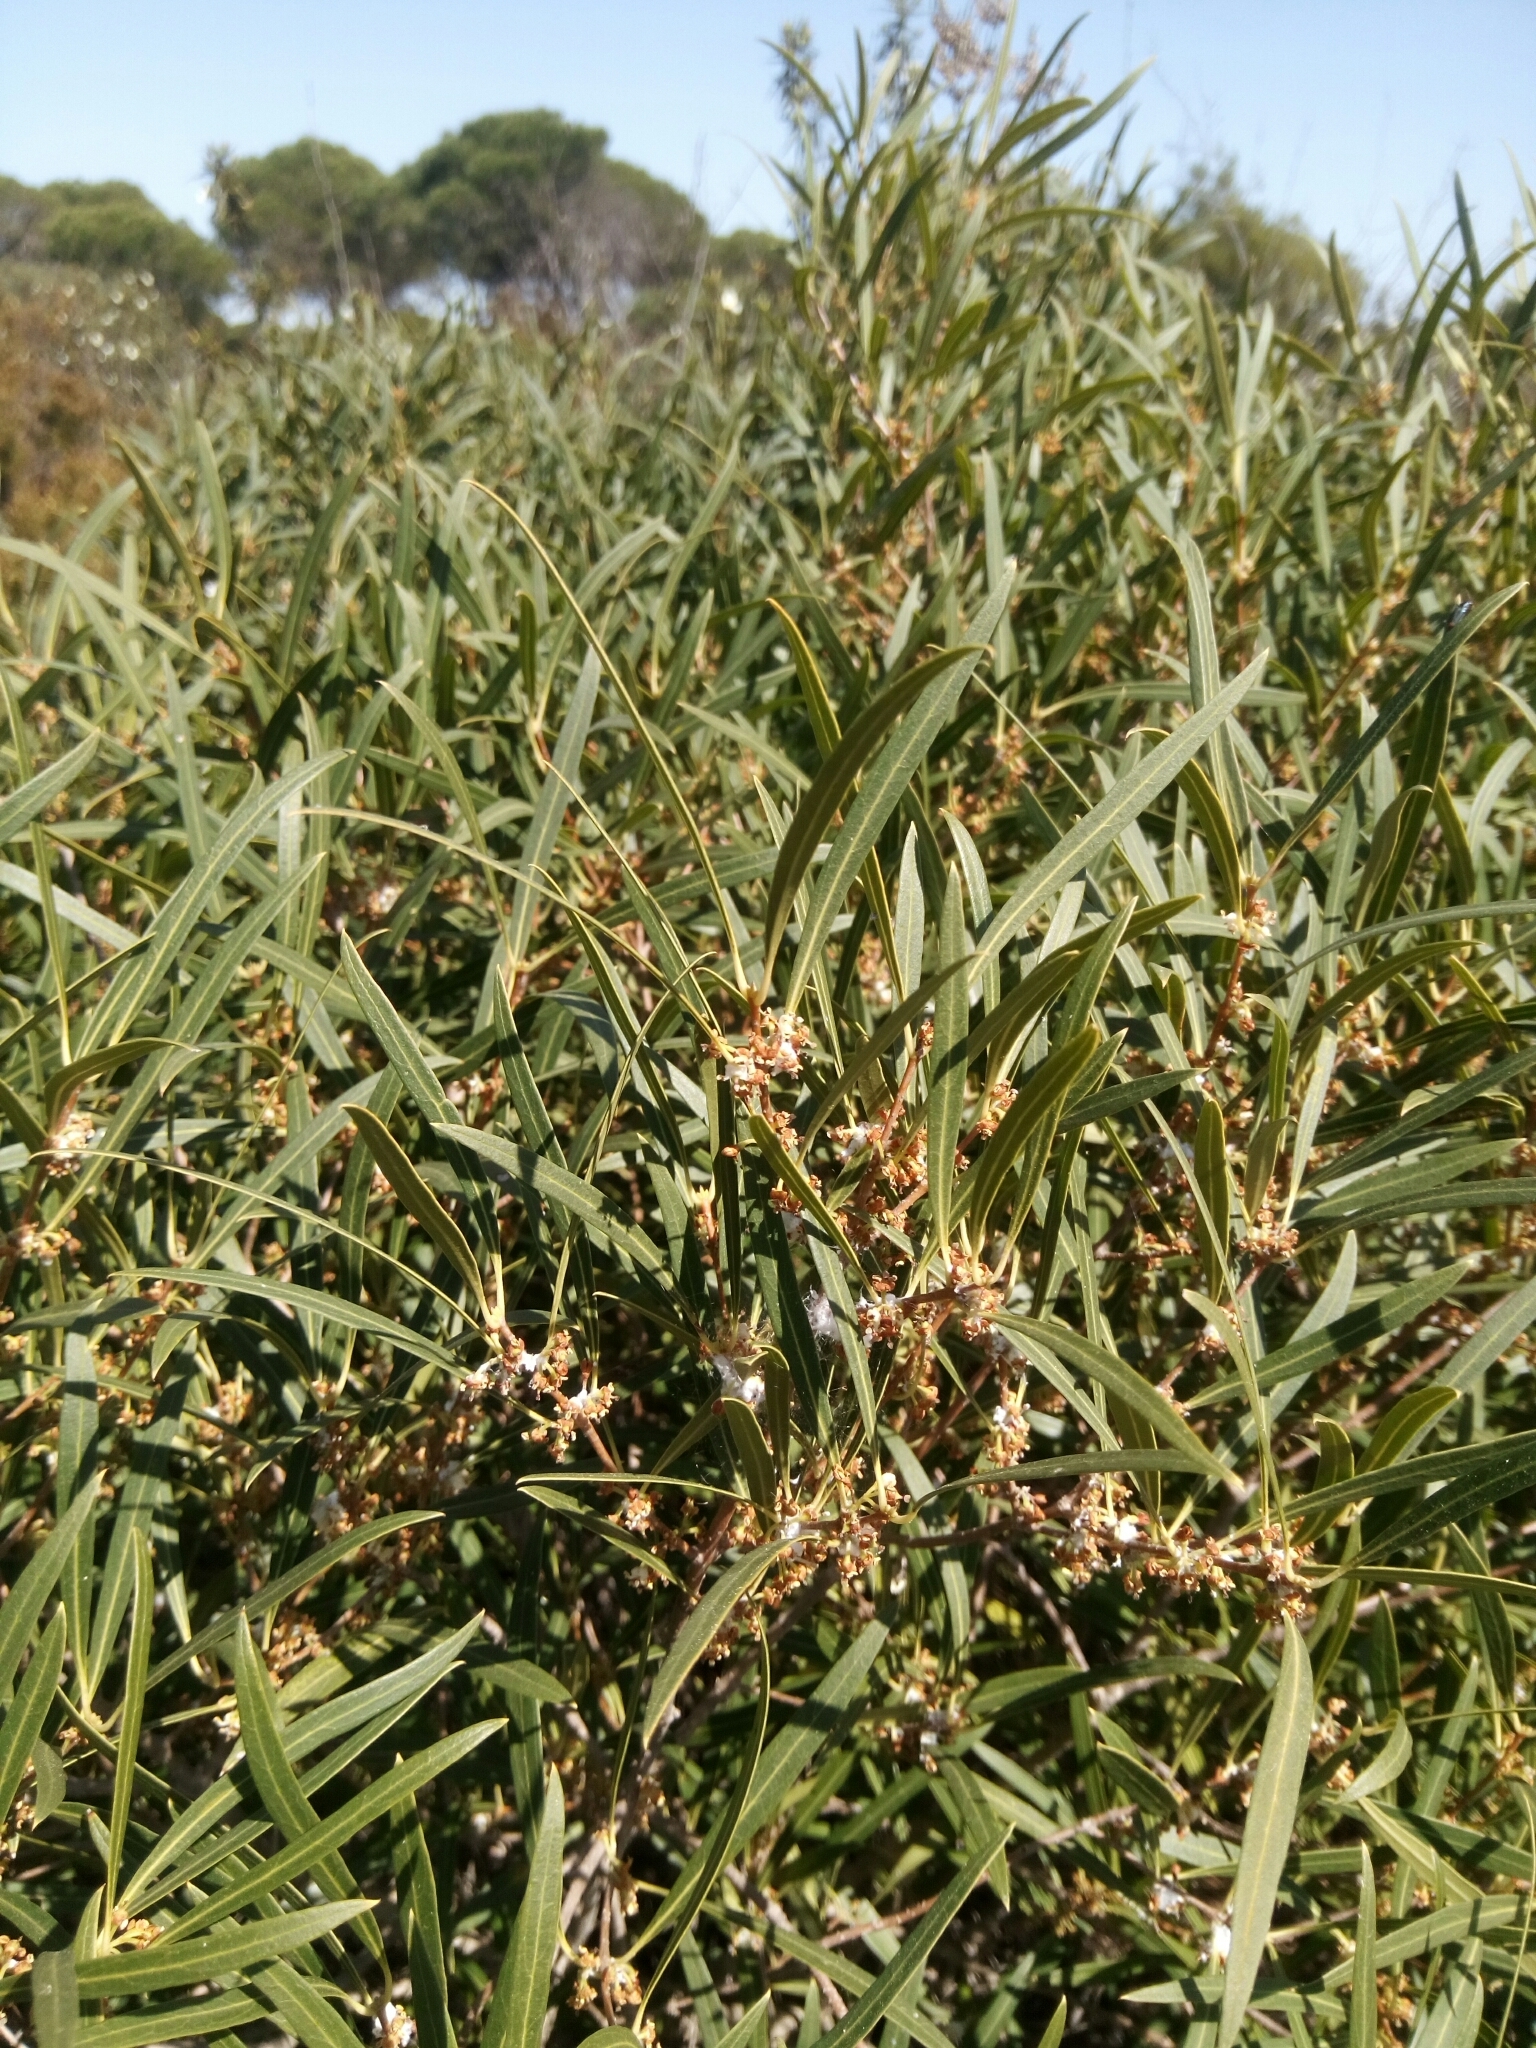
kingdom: Plantae
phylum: Tracheophyta
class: Magnoliopsida
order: Lamiales
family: Oleaceae
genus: Phillyrea
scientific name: Phillyrea angustifolia
